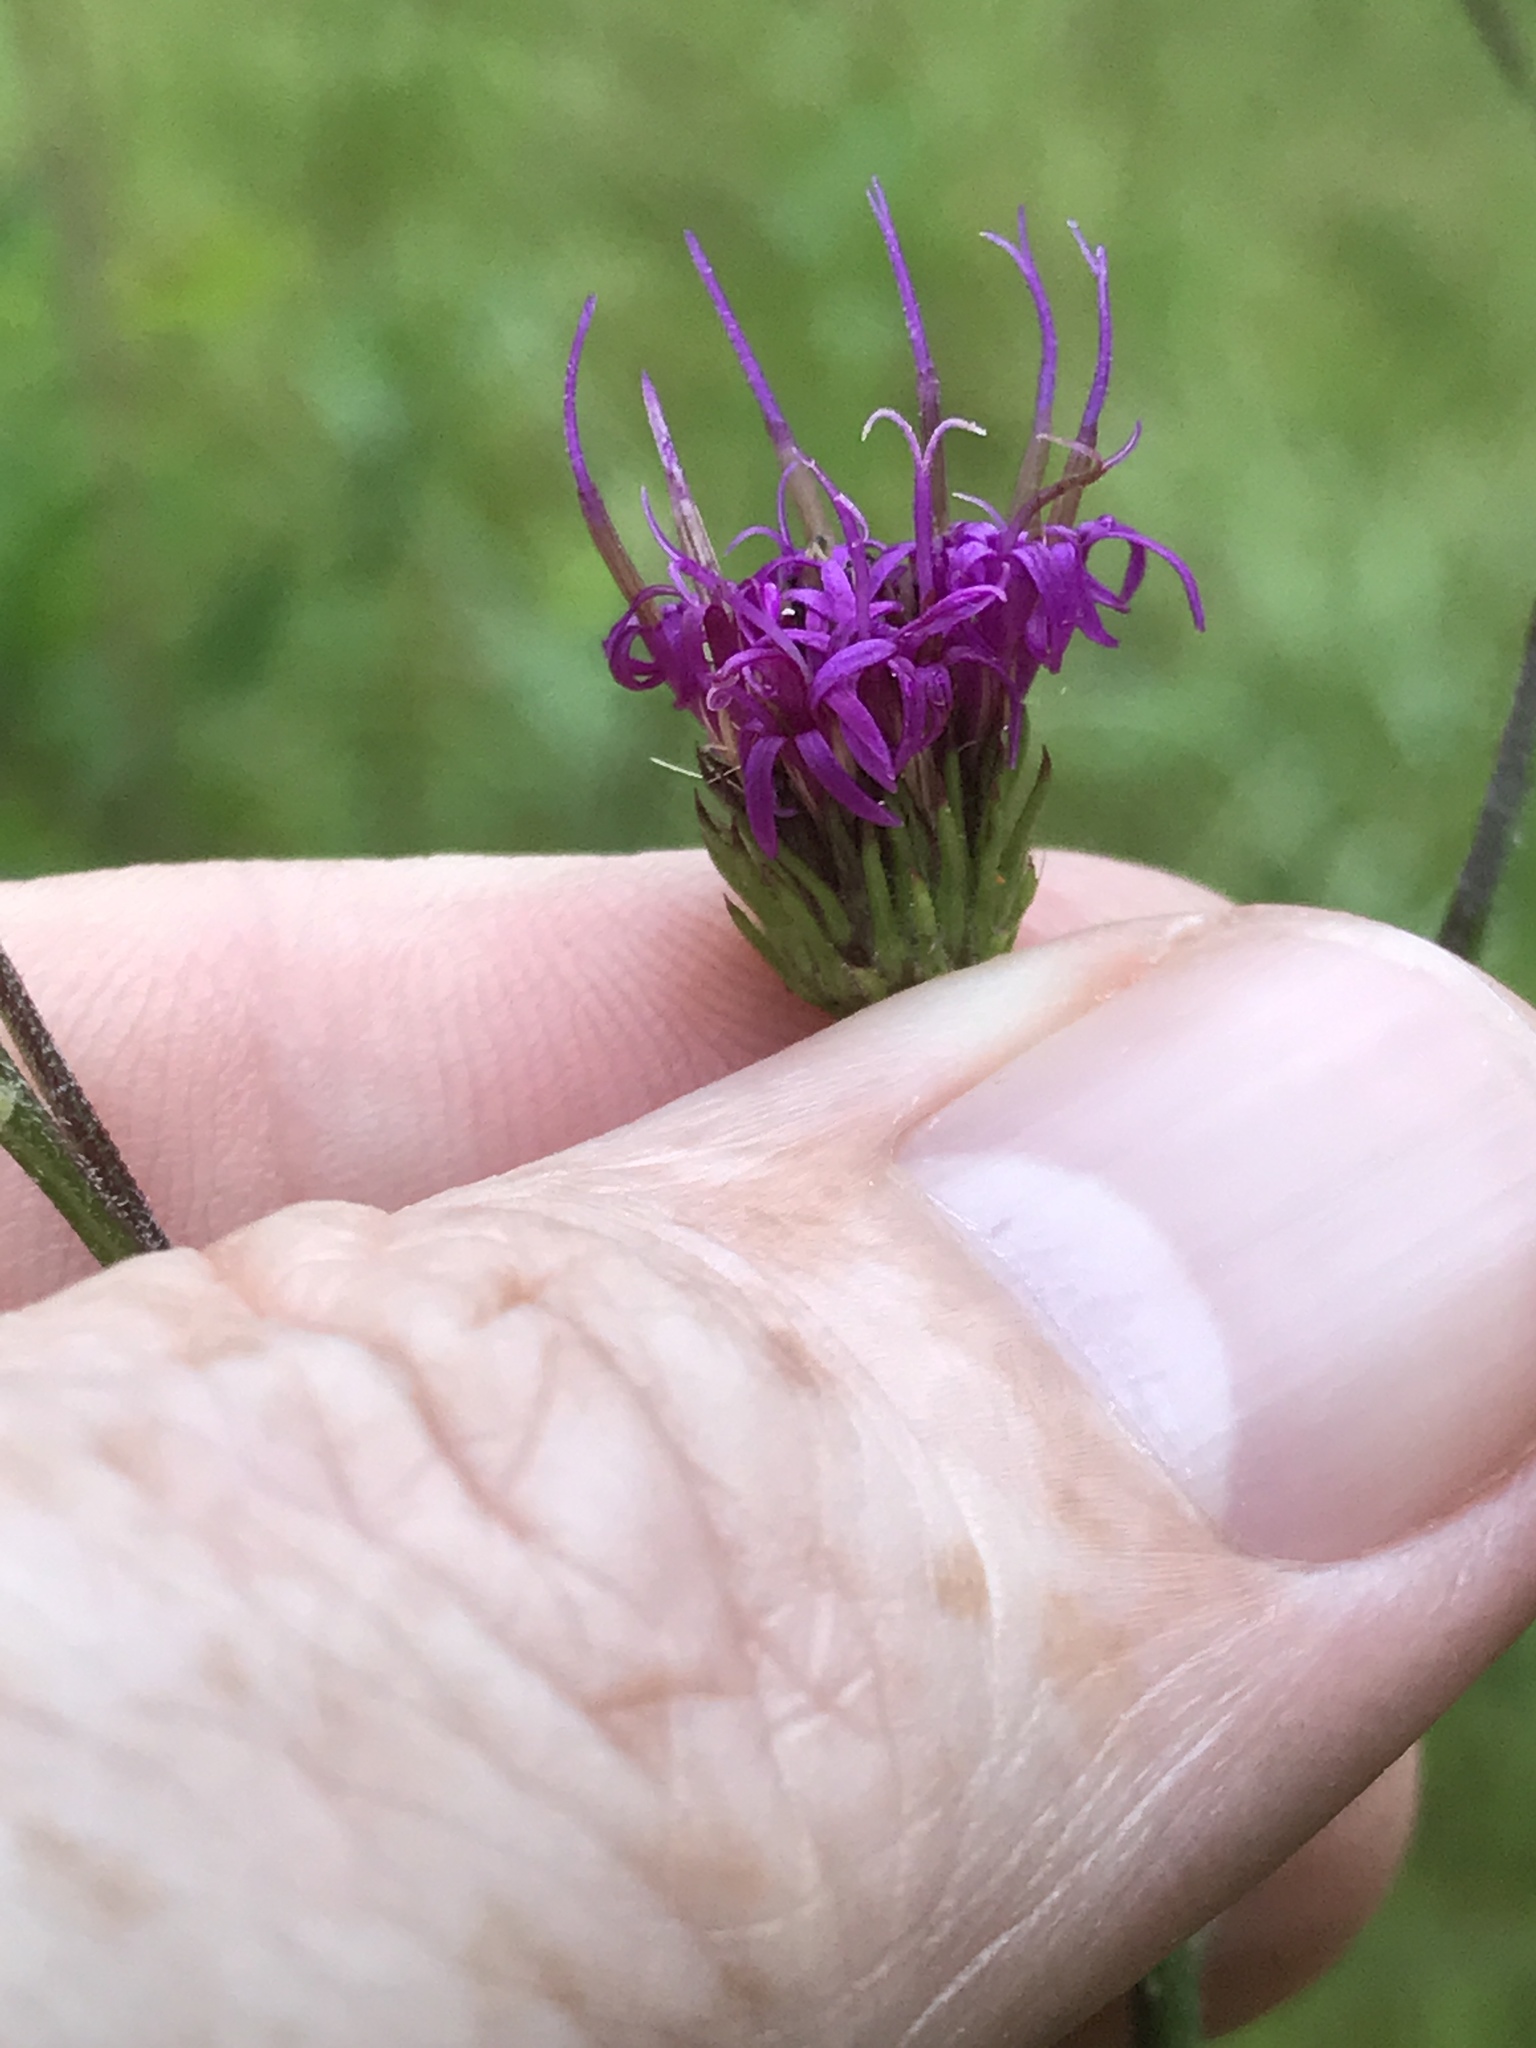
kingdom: Plantae
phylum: Tracheophyta
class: Magnoliopsida
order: Asterales
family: Asteraceae
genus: Vernonia
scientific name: Vernonia acaulis
